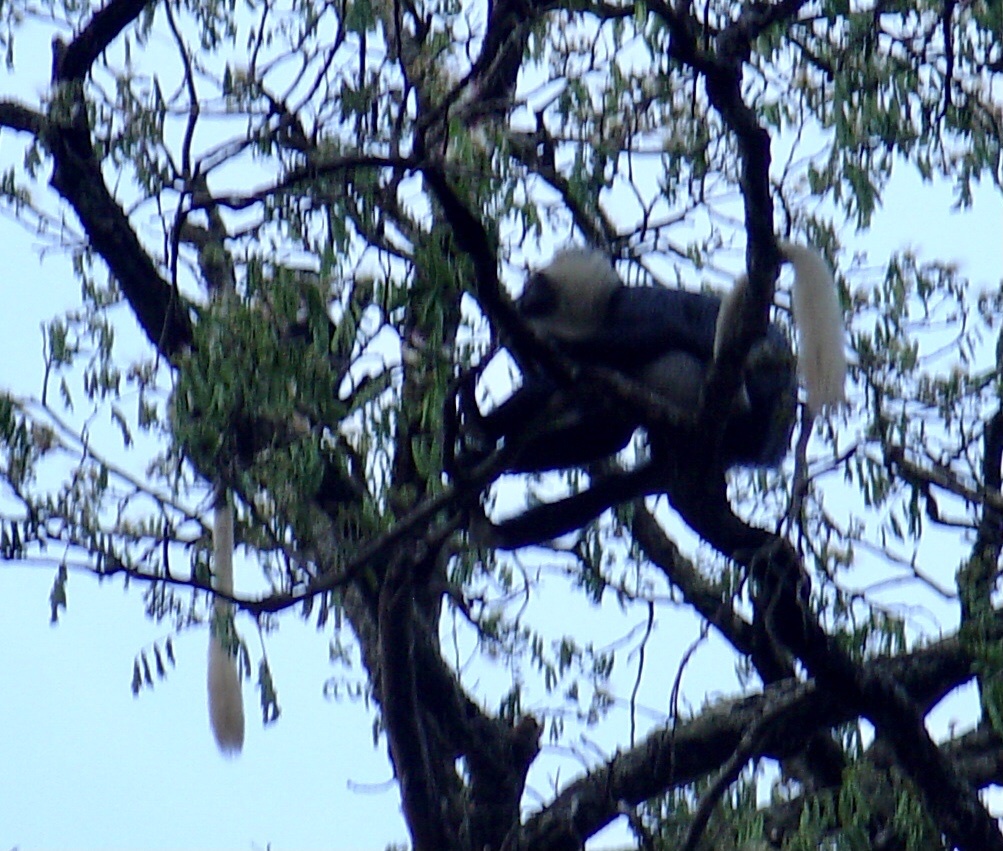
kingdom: Animalia
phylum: Chordata
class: Mammalia
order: Primates
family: Cercopithecidae
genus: Colobus
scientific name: Colobus vellerosus
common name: Ursine colobus
